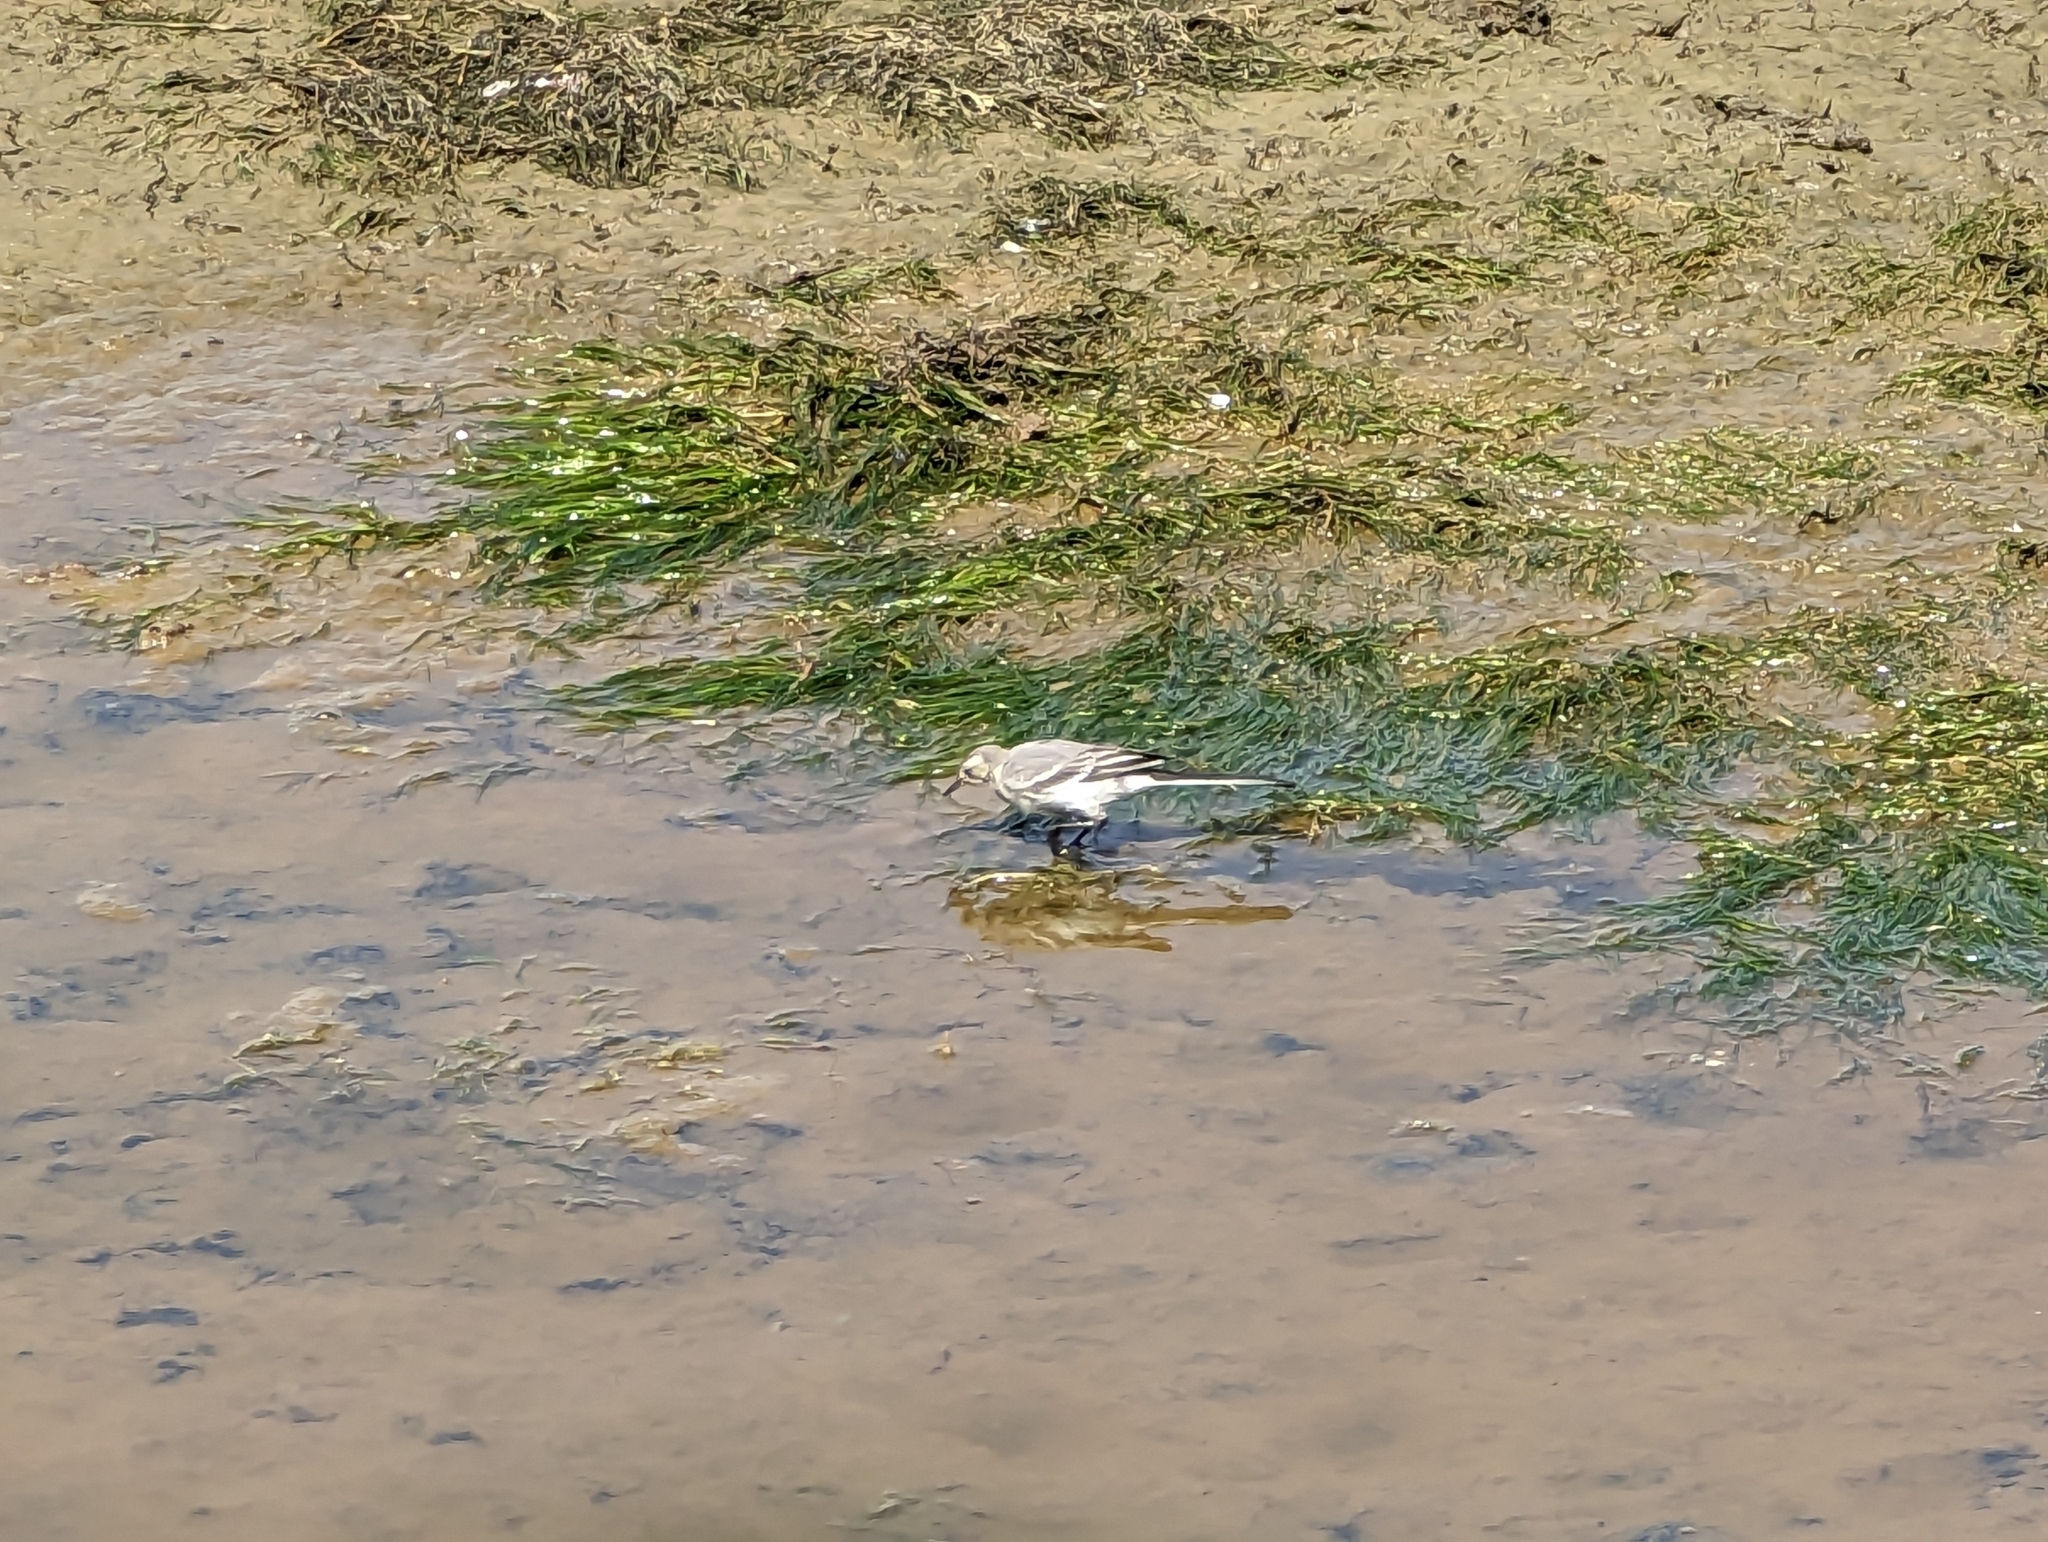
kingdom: Animalia
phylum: Chordata
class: Aves
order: Passeriformes
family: Motacillidae
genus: Motacilla
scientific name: Motacilla alba
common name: White wagtail
